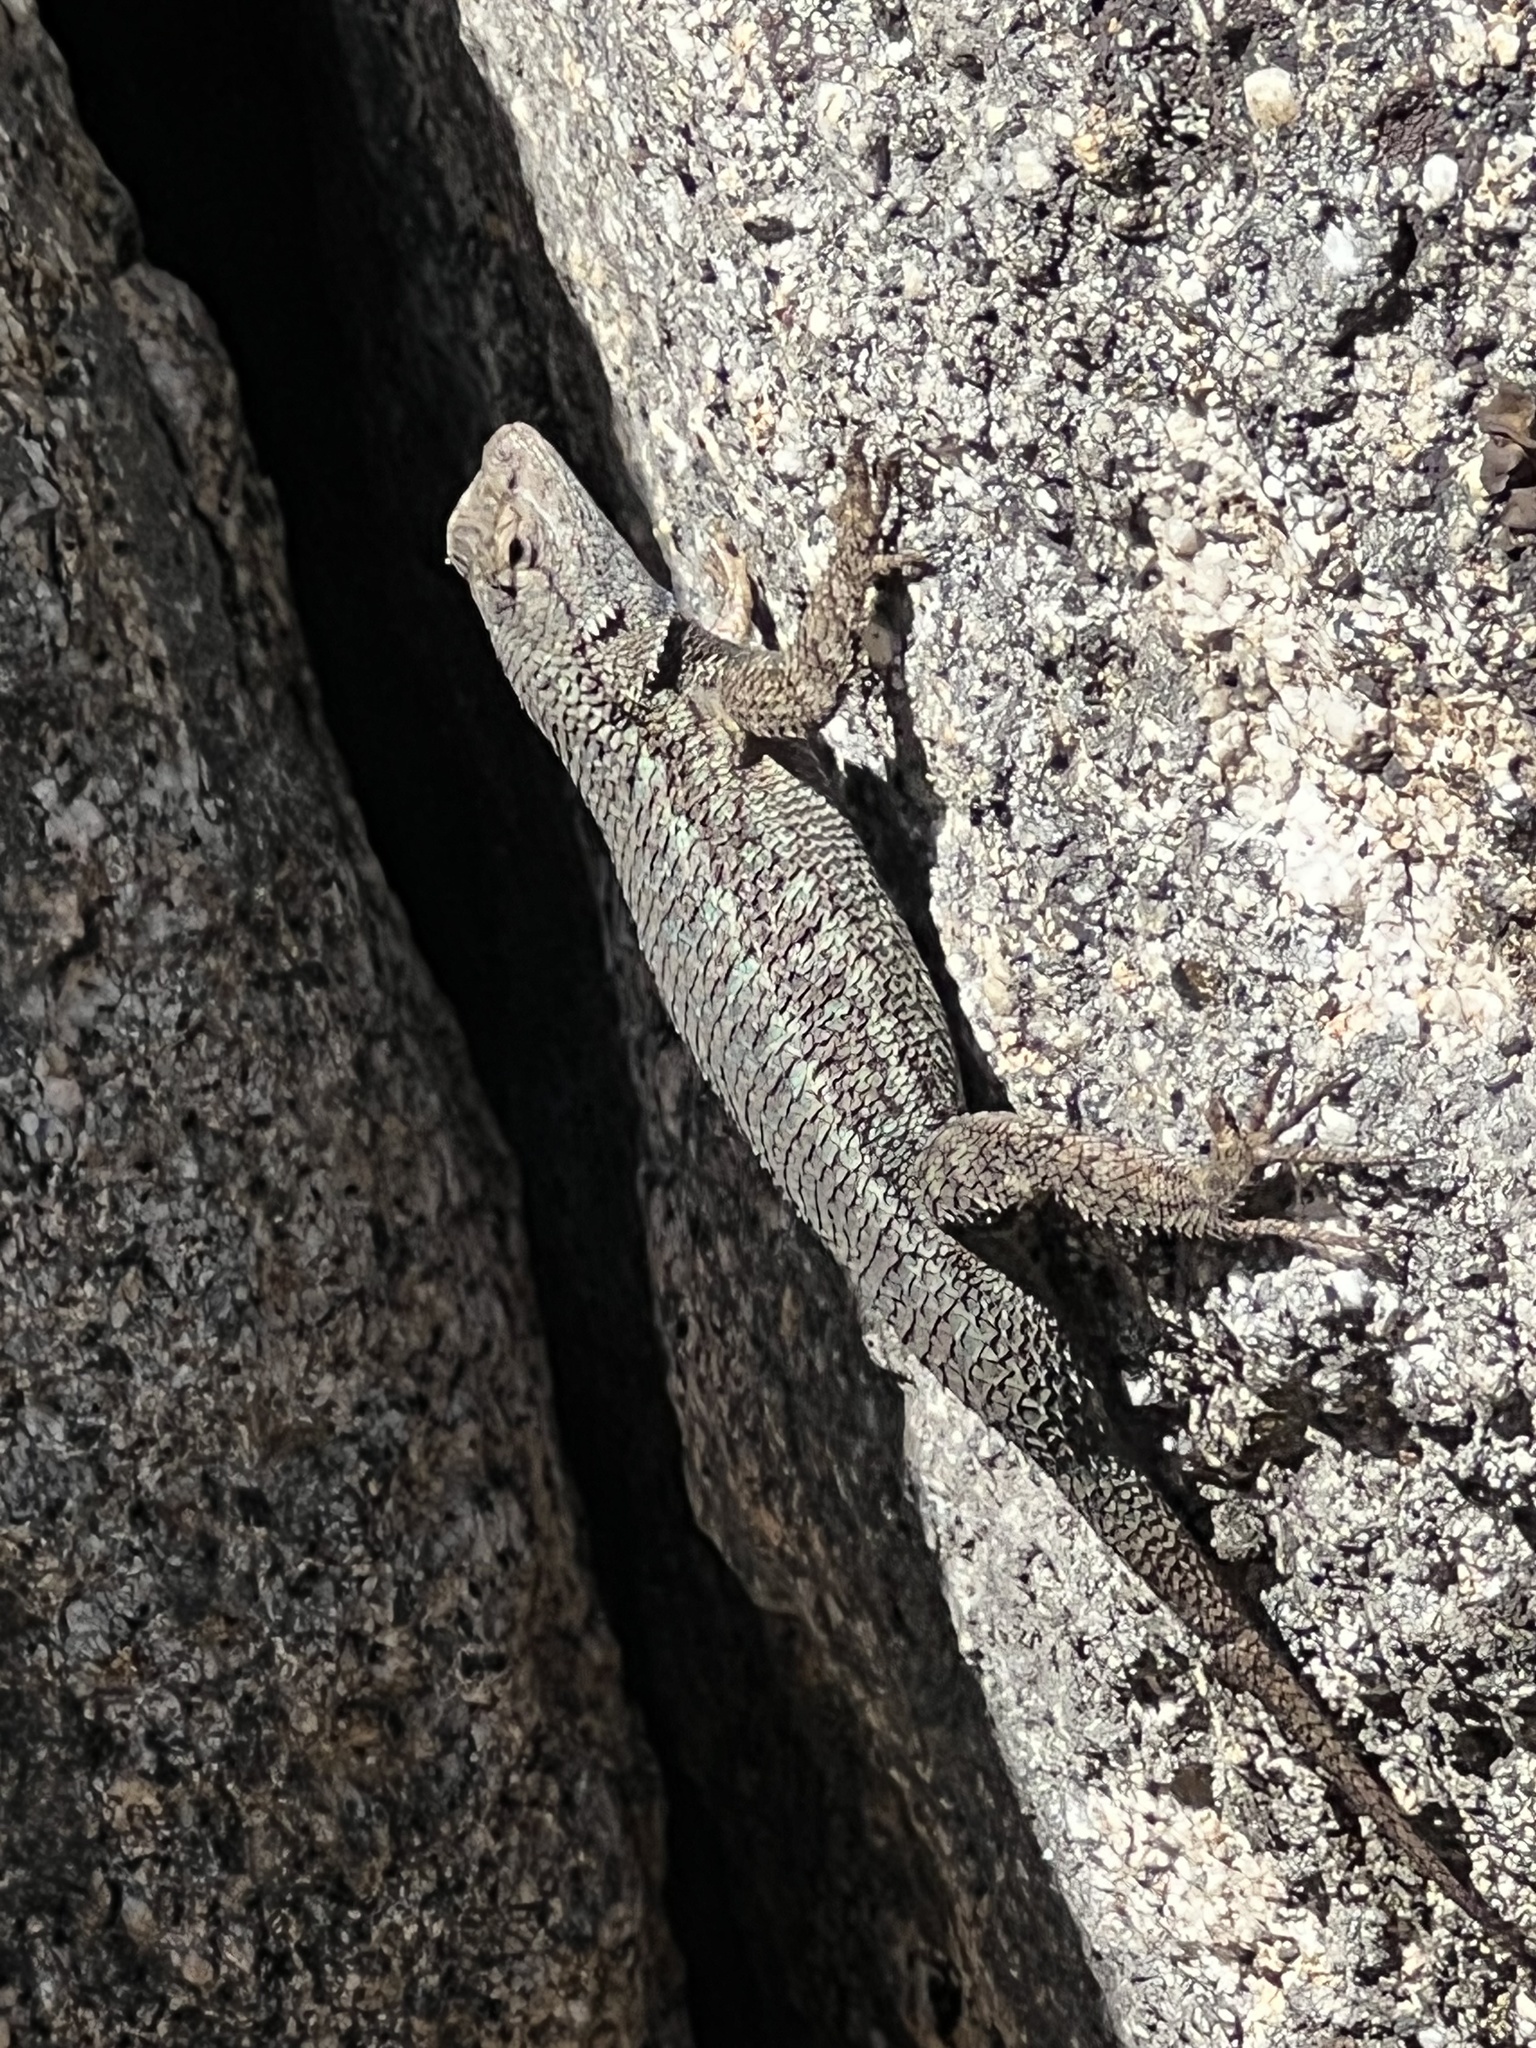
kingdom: Animalia
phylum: Chordata
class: Squamata
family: Phrynosomatidae
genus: Sceloporus
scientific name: Sceloporus occidentalis
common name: Western fence lizard
